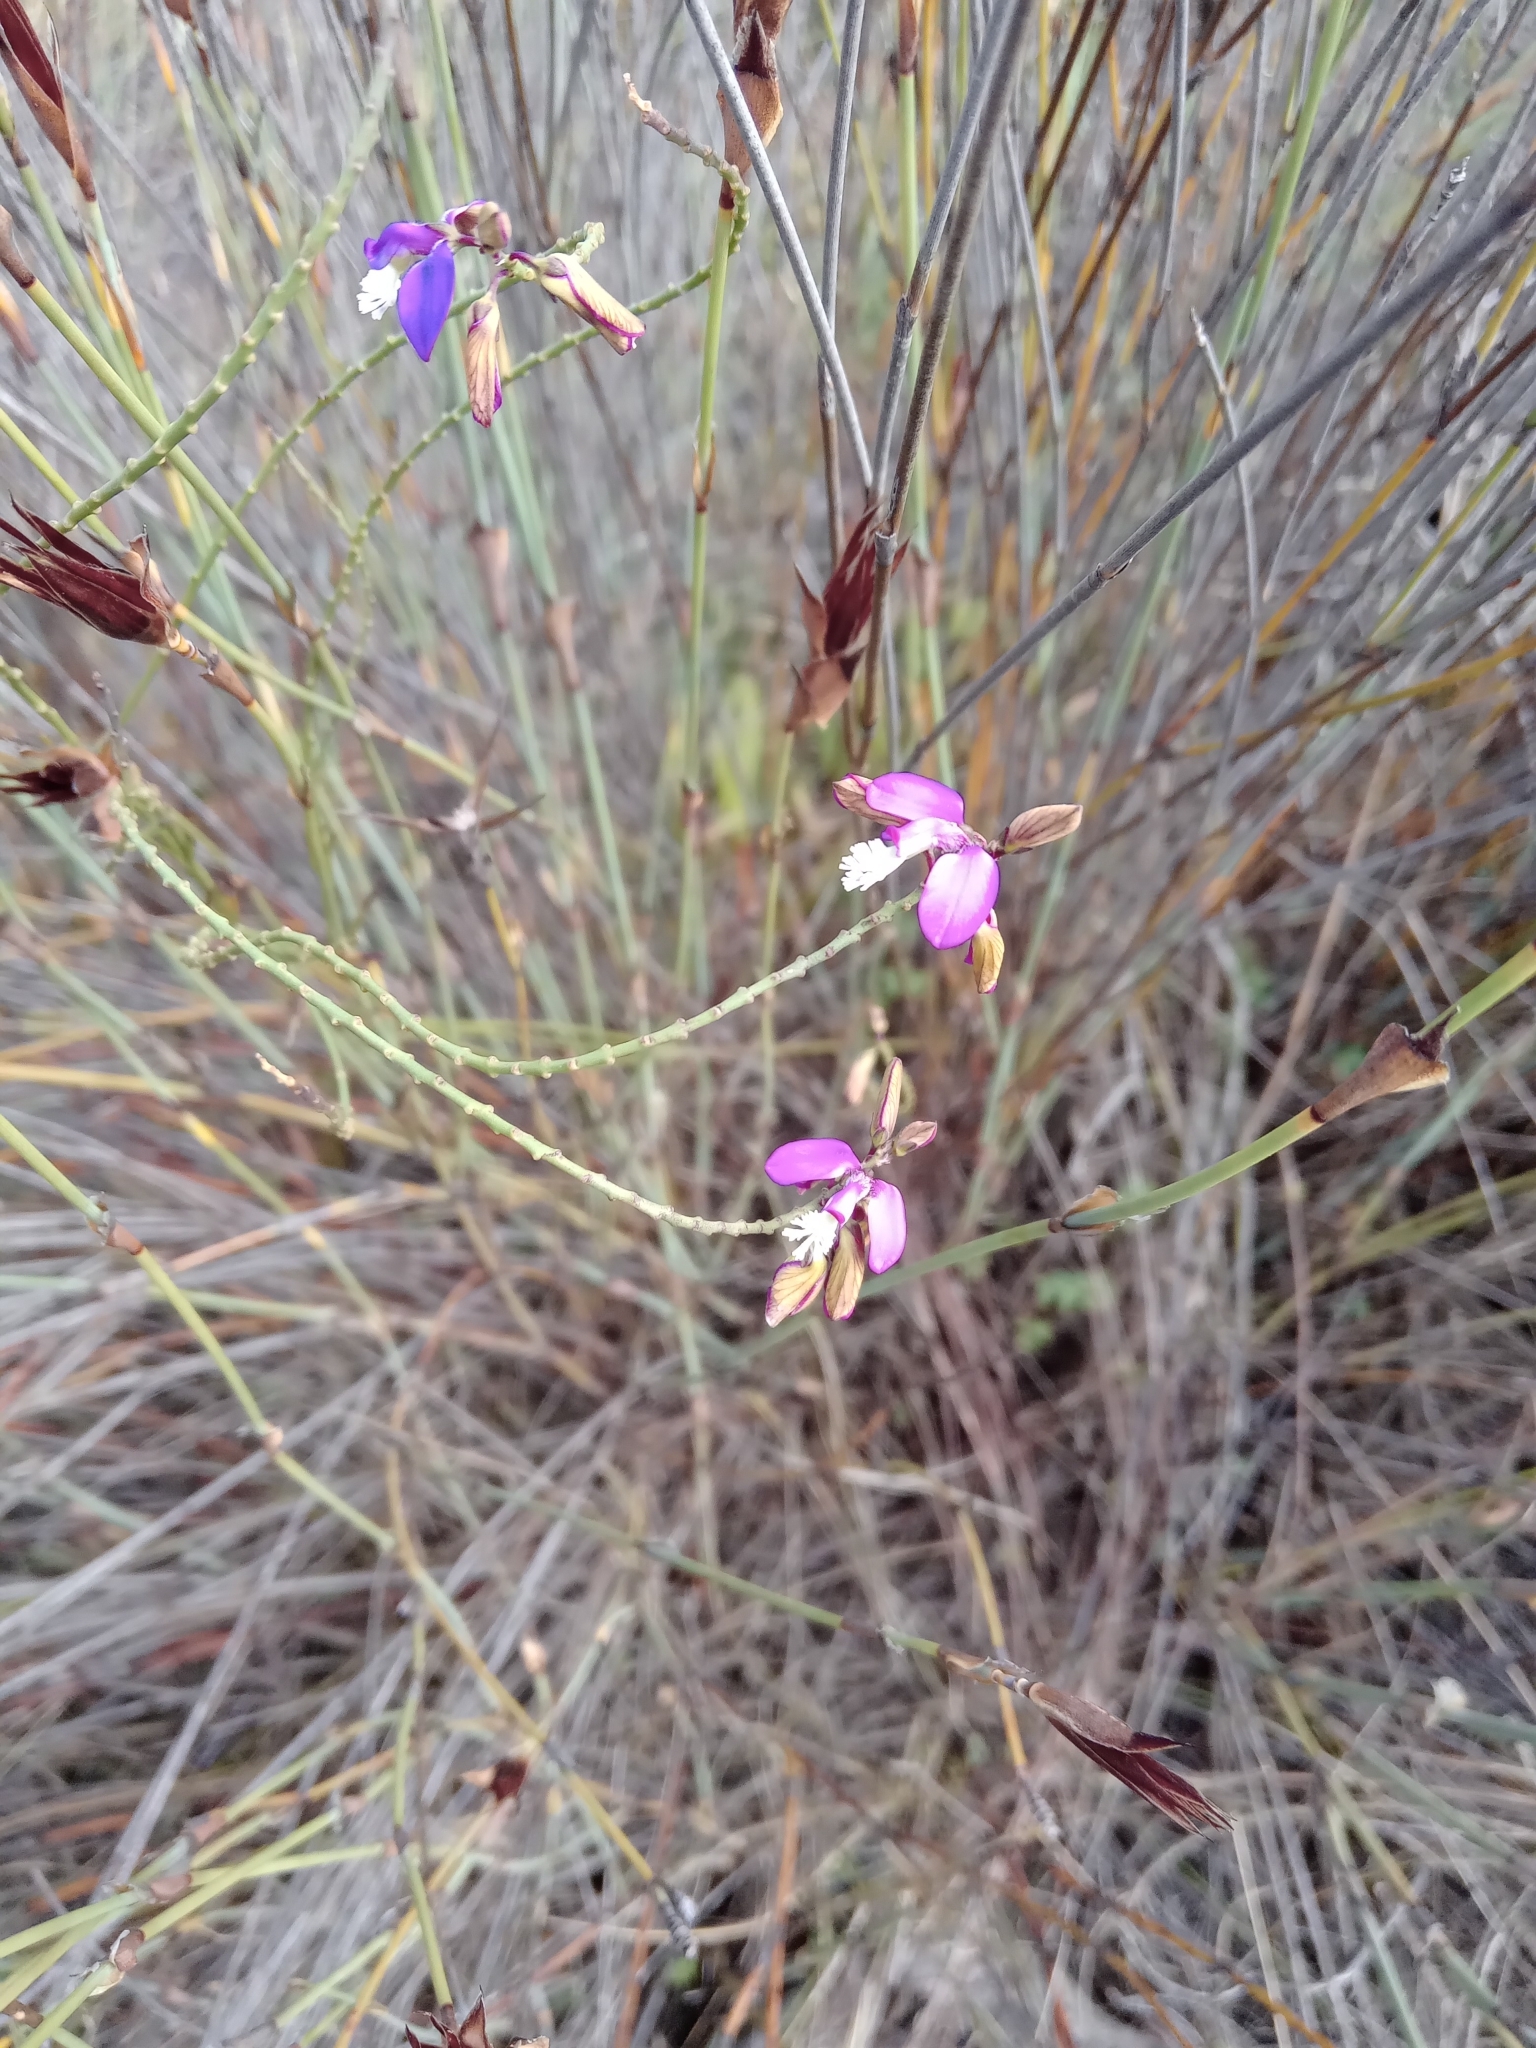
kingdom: Plantae
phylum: Tracheophyta
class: Magnoliopsida
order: Fabales
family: Polygalaceae
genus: Polygala
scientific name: Polygala garcini
